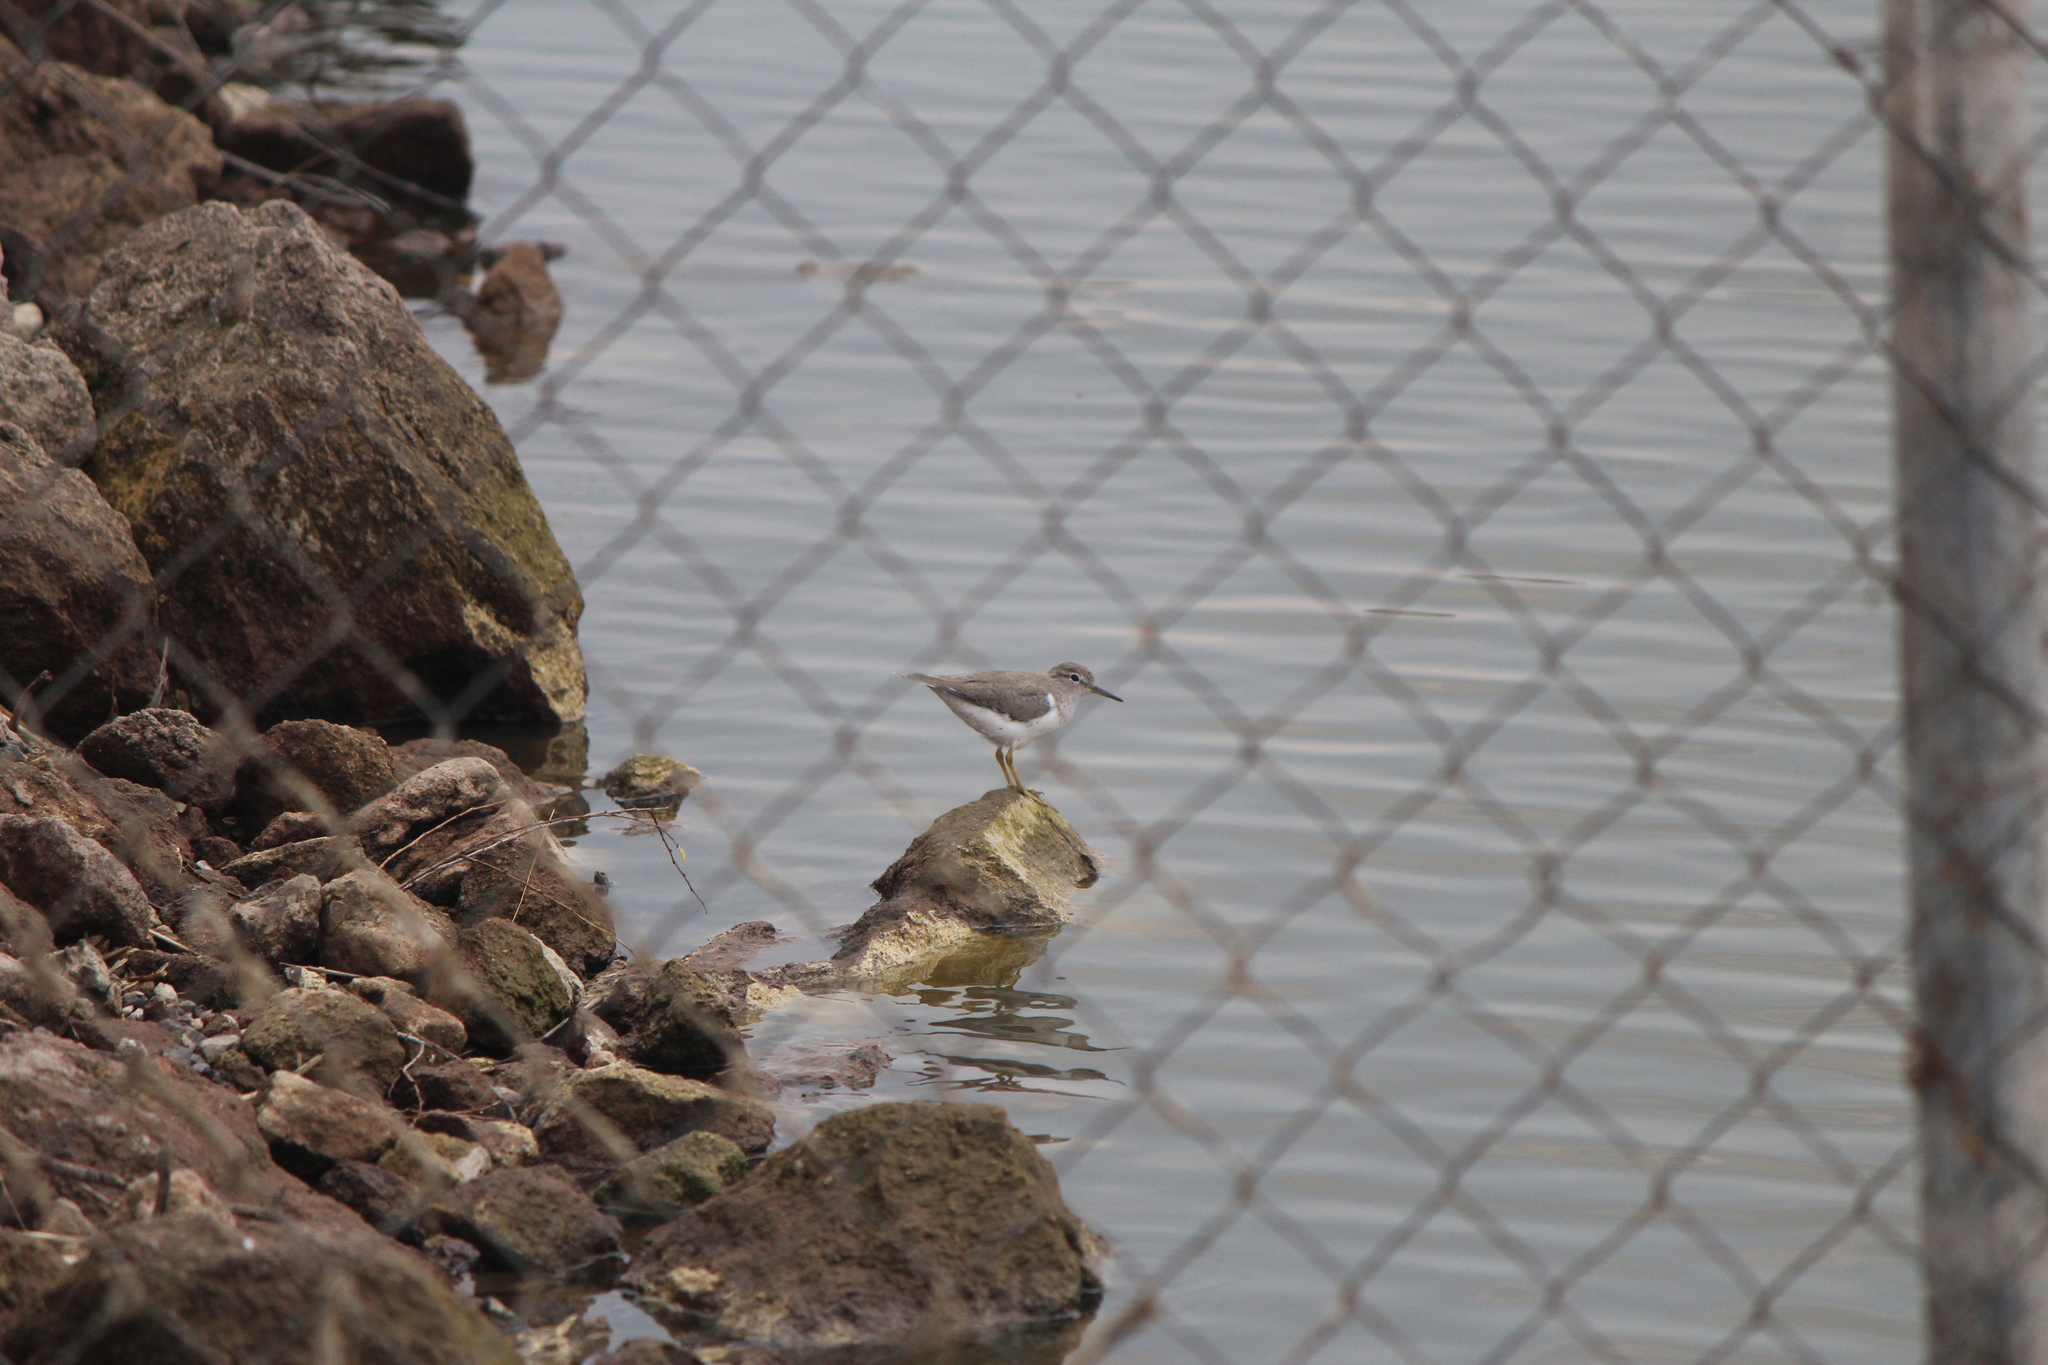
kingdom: Animalia
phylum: Chordata
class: Aves
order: Charadriiformes
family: Scolopacidae
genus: Actitis
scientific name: Actitis macularius
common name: Spotted sandpiper
